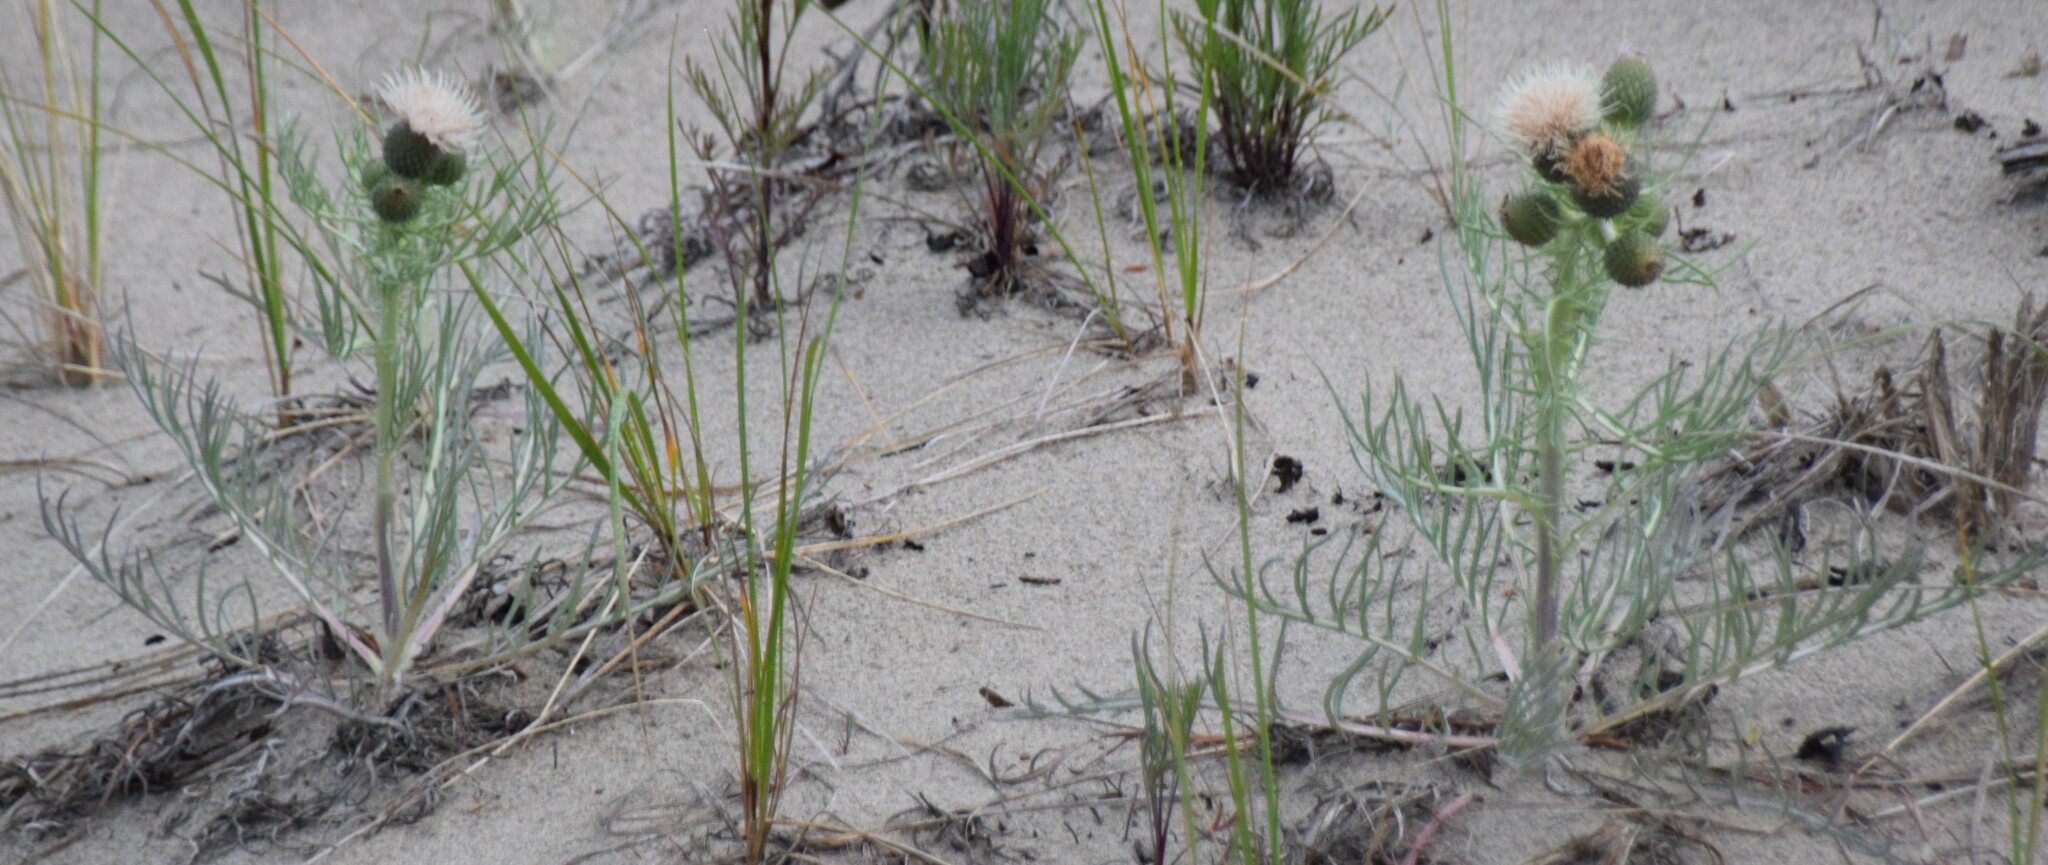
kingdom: Plantae
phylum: Tracheophyta
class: Magnoliopsida
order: Asterales
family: Asteraceae
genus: Cirsium
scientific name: Cirsium pitcheri
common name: Dune thistle
